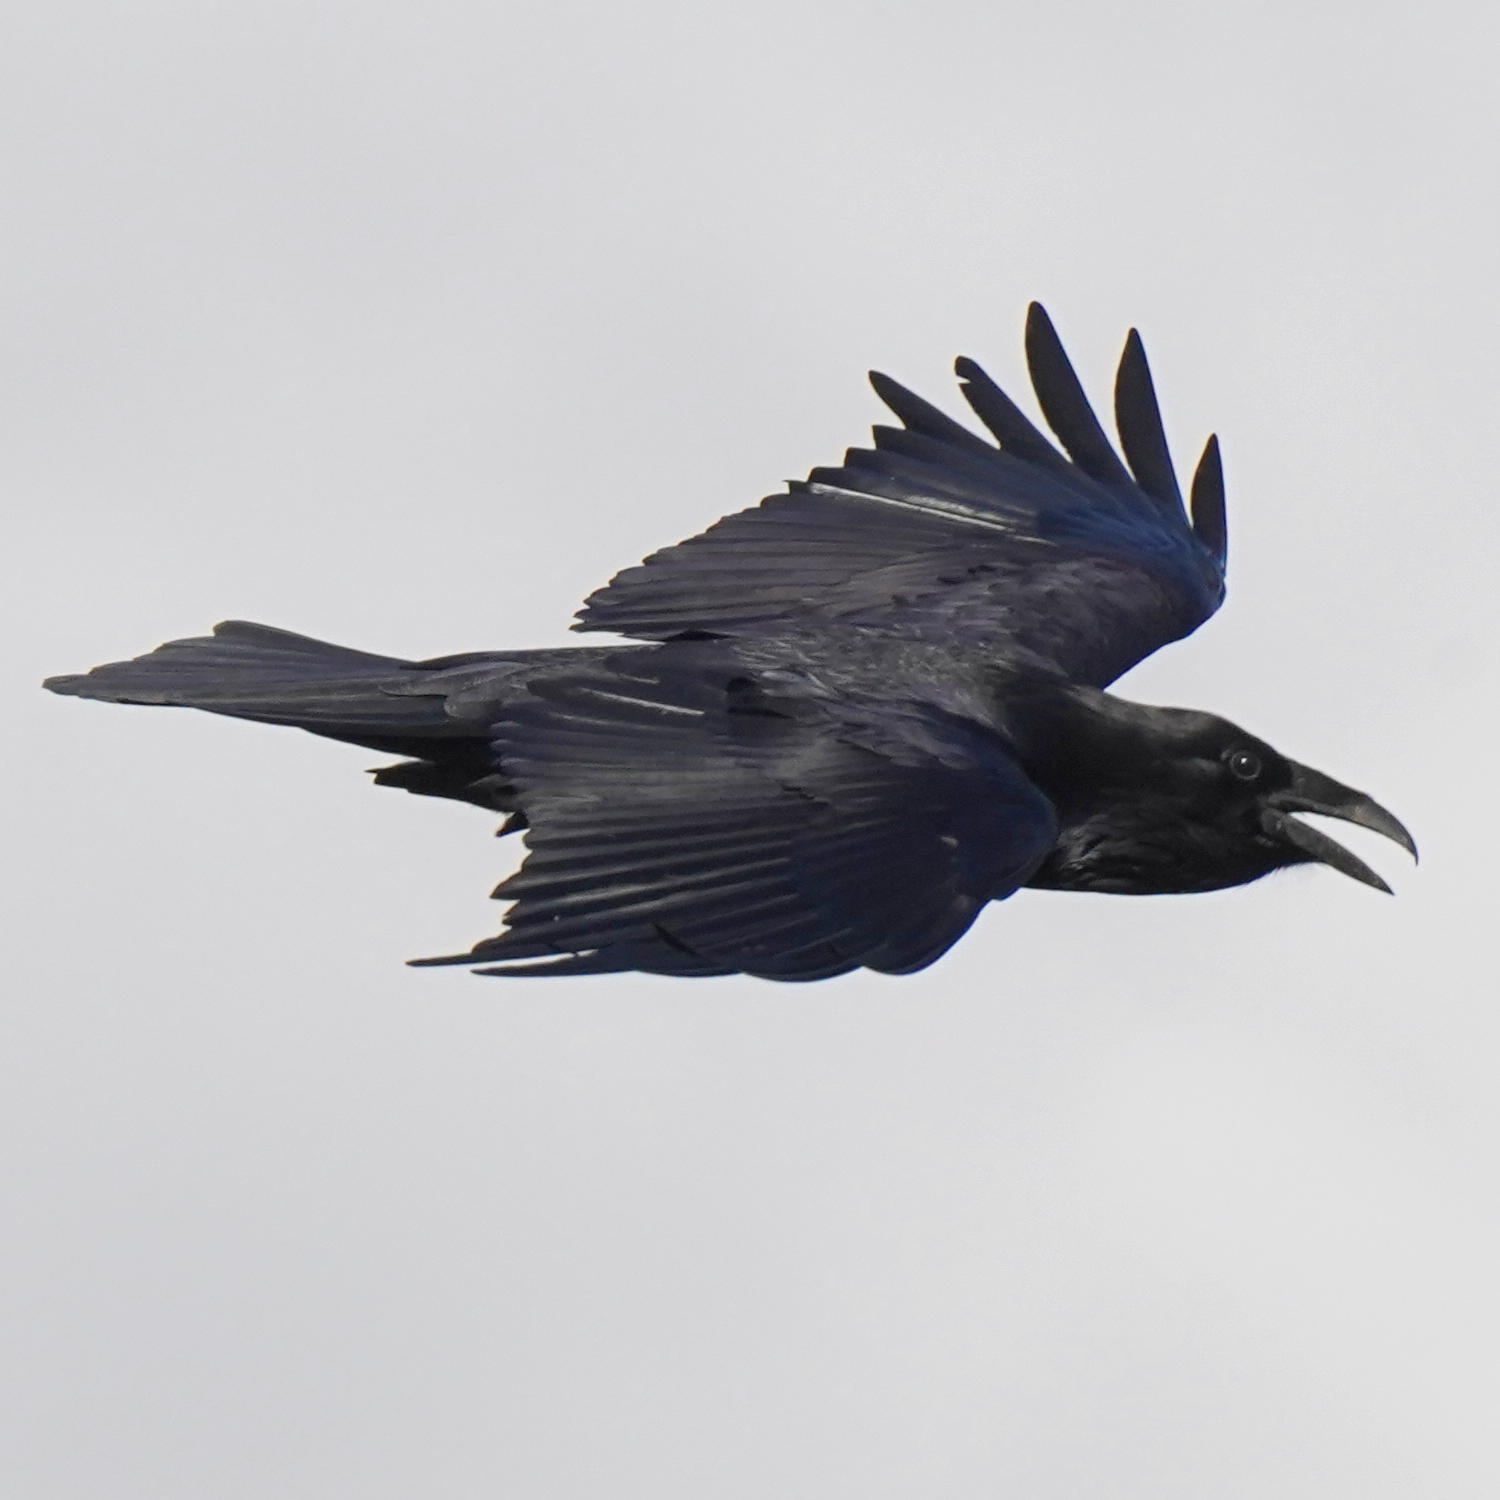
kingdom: Animalia
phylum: Chordata
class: Aves
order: Passeriformes
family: Corvidae
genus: Corvus
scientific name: Corvus corax
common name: Common raven
